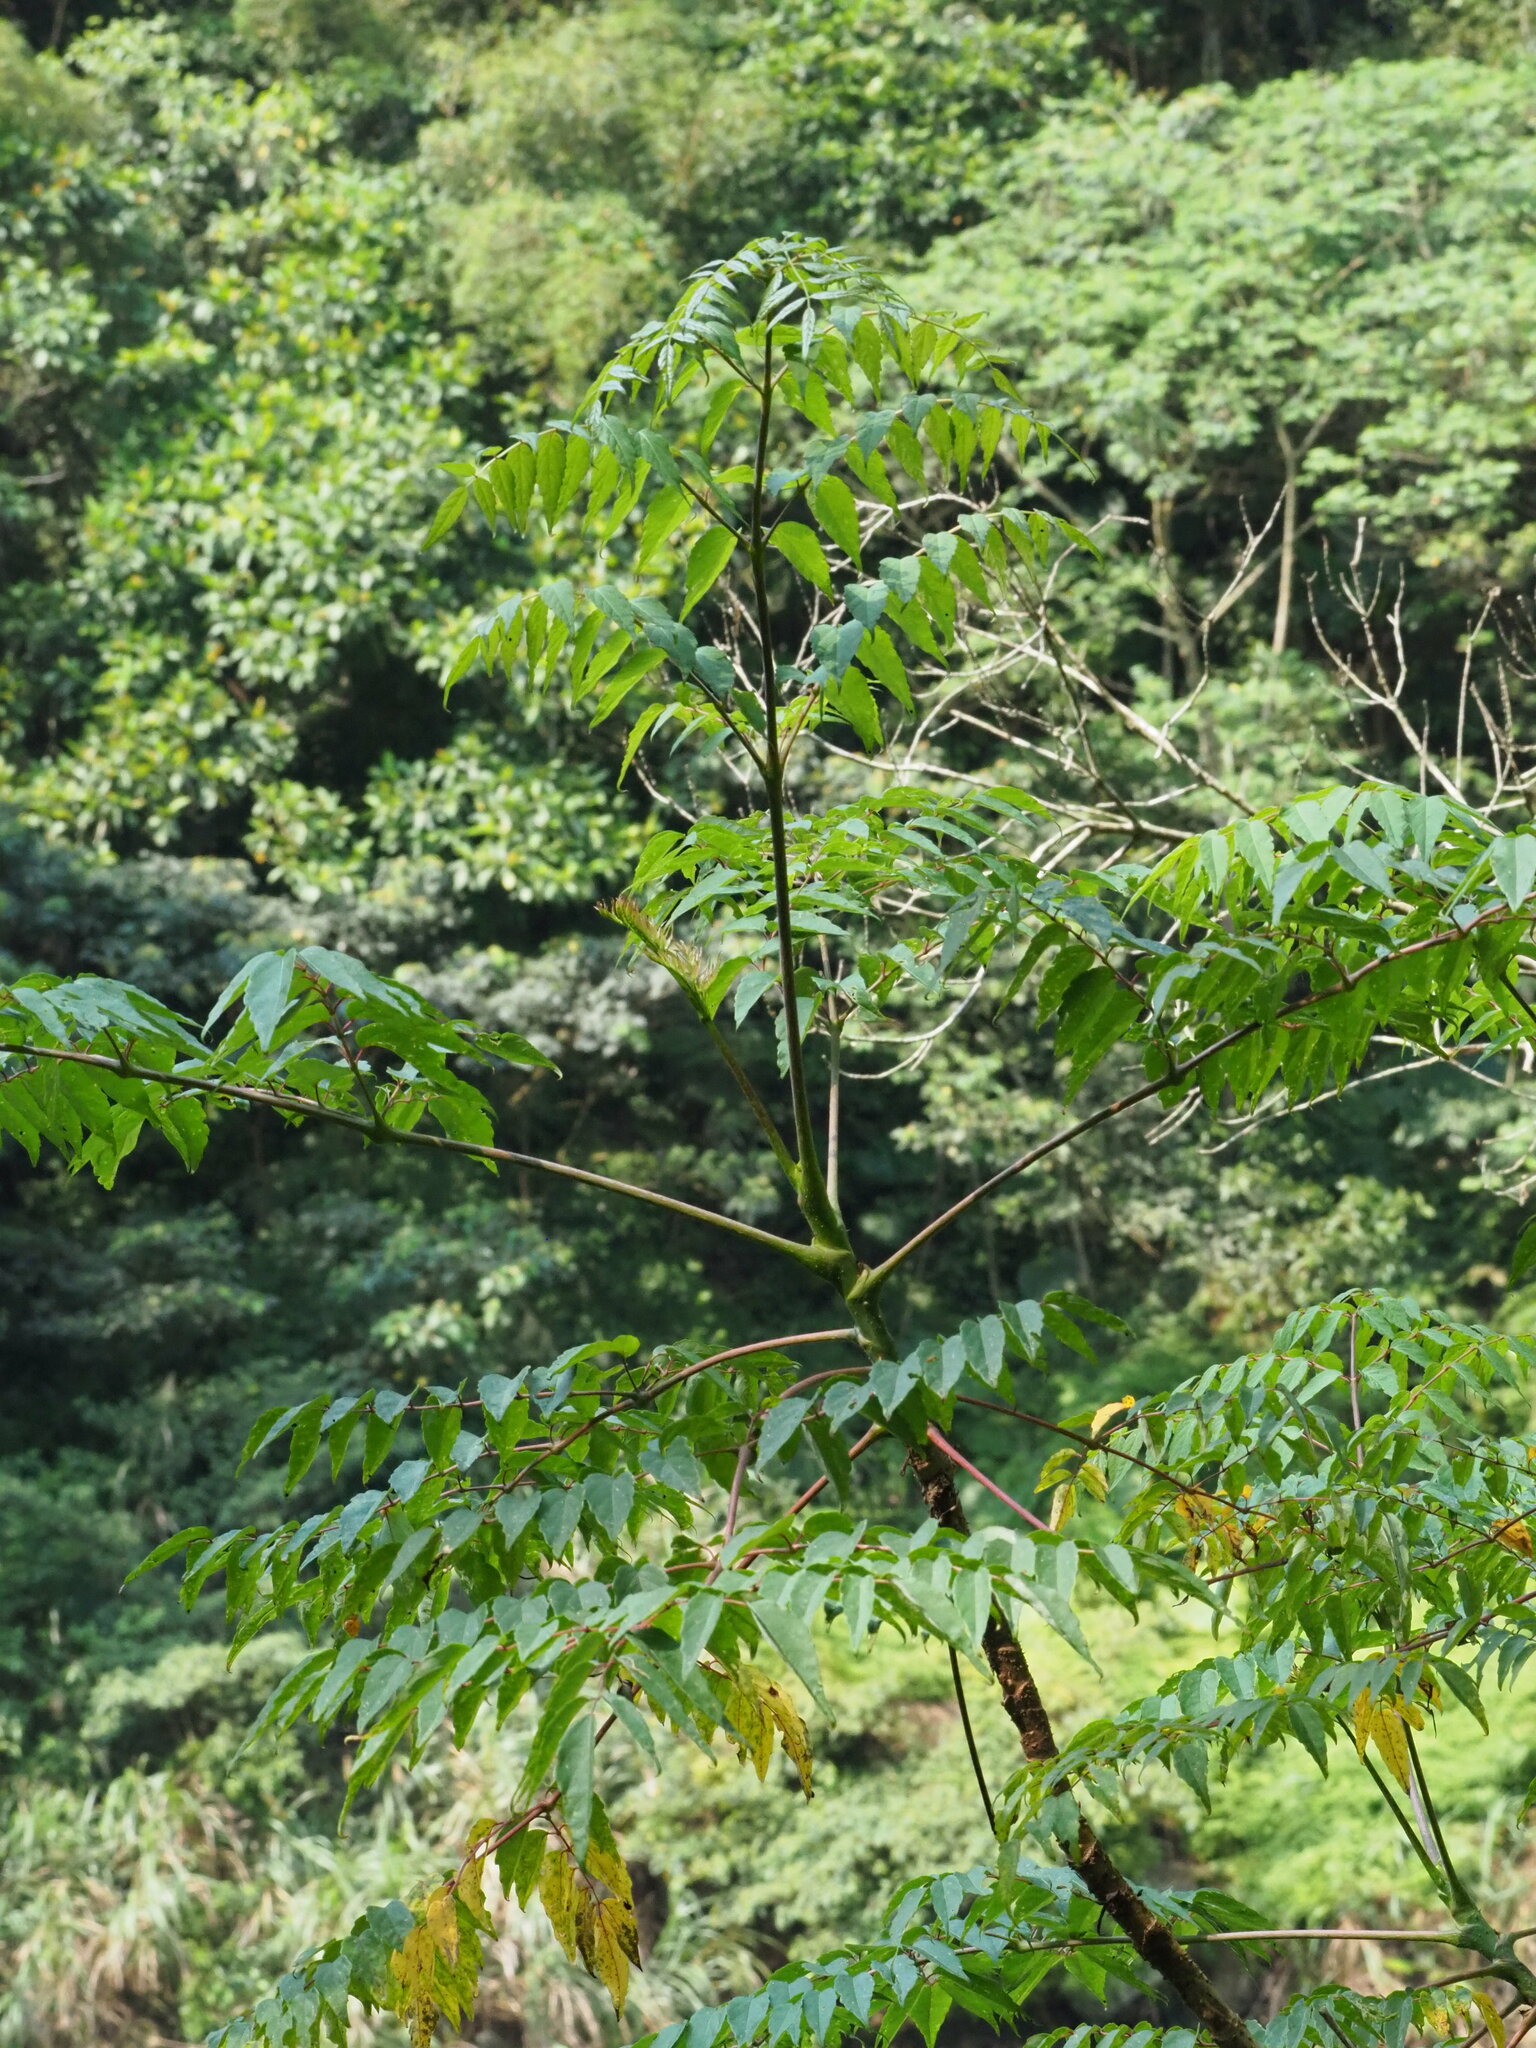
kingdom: Plantae
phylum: Tracheophyta
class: Magnoliopsida
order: Apiales
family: Araliaceae
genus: Aralia
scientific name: Aralia bipinnata
